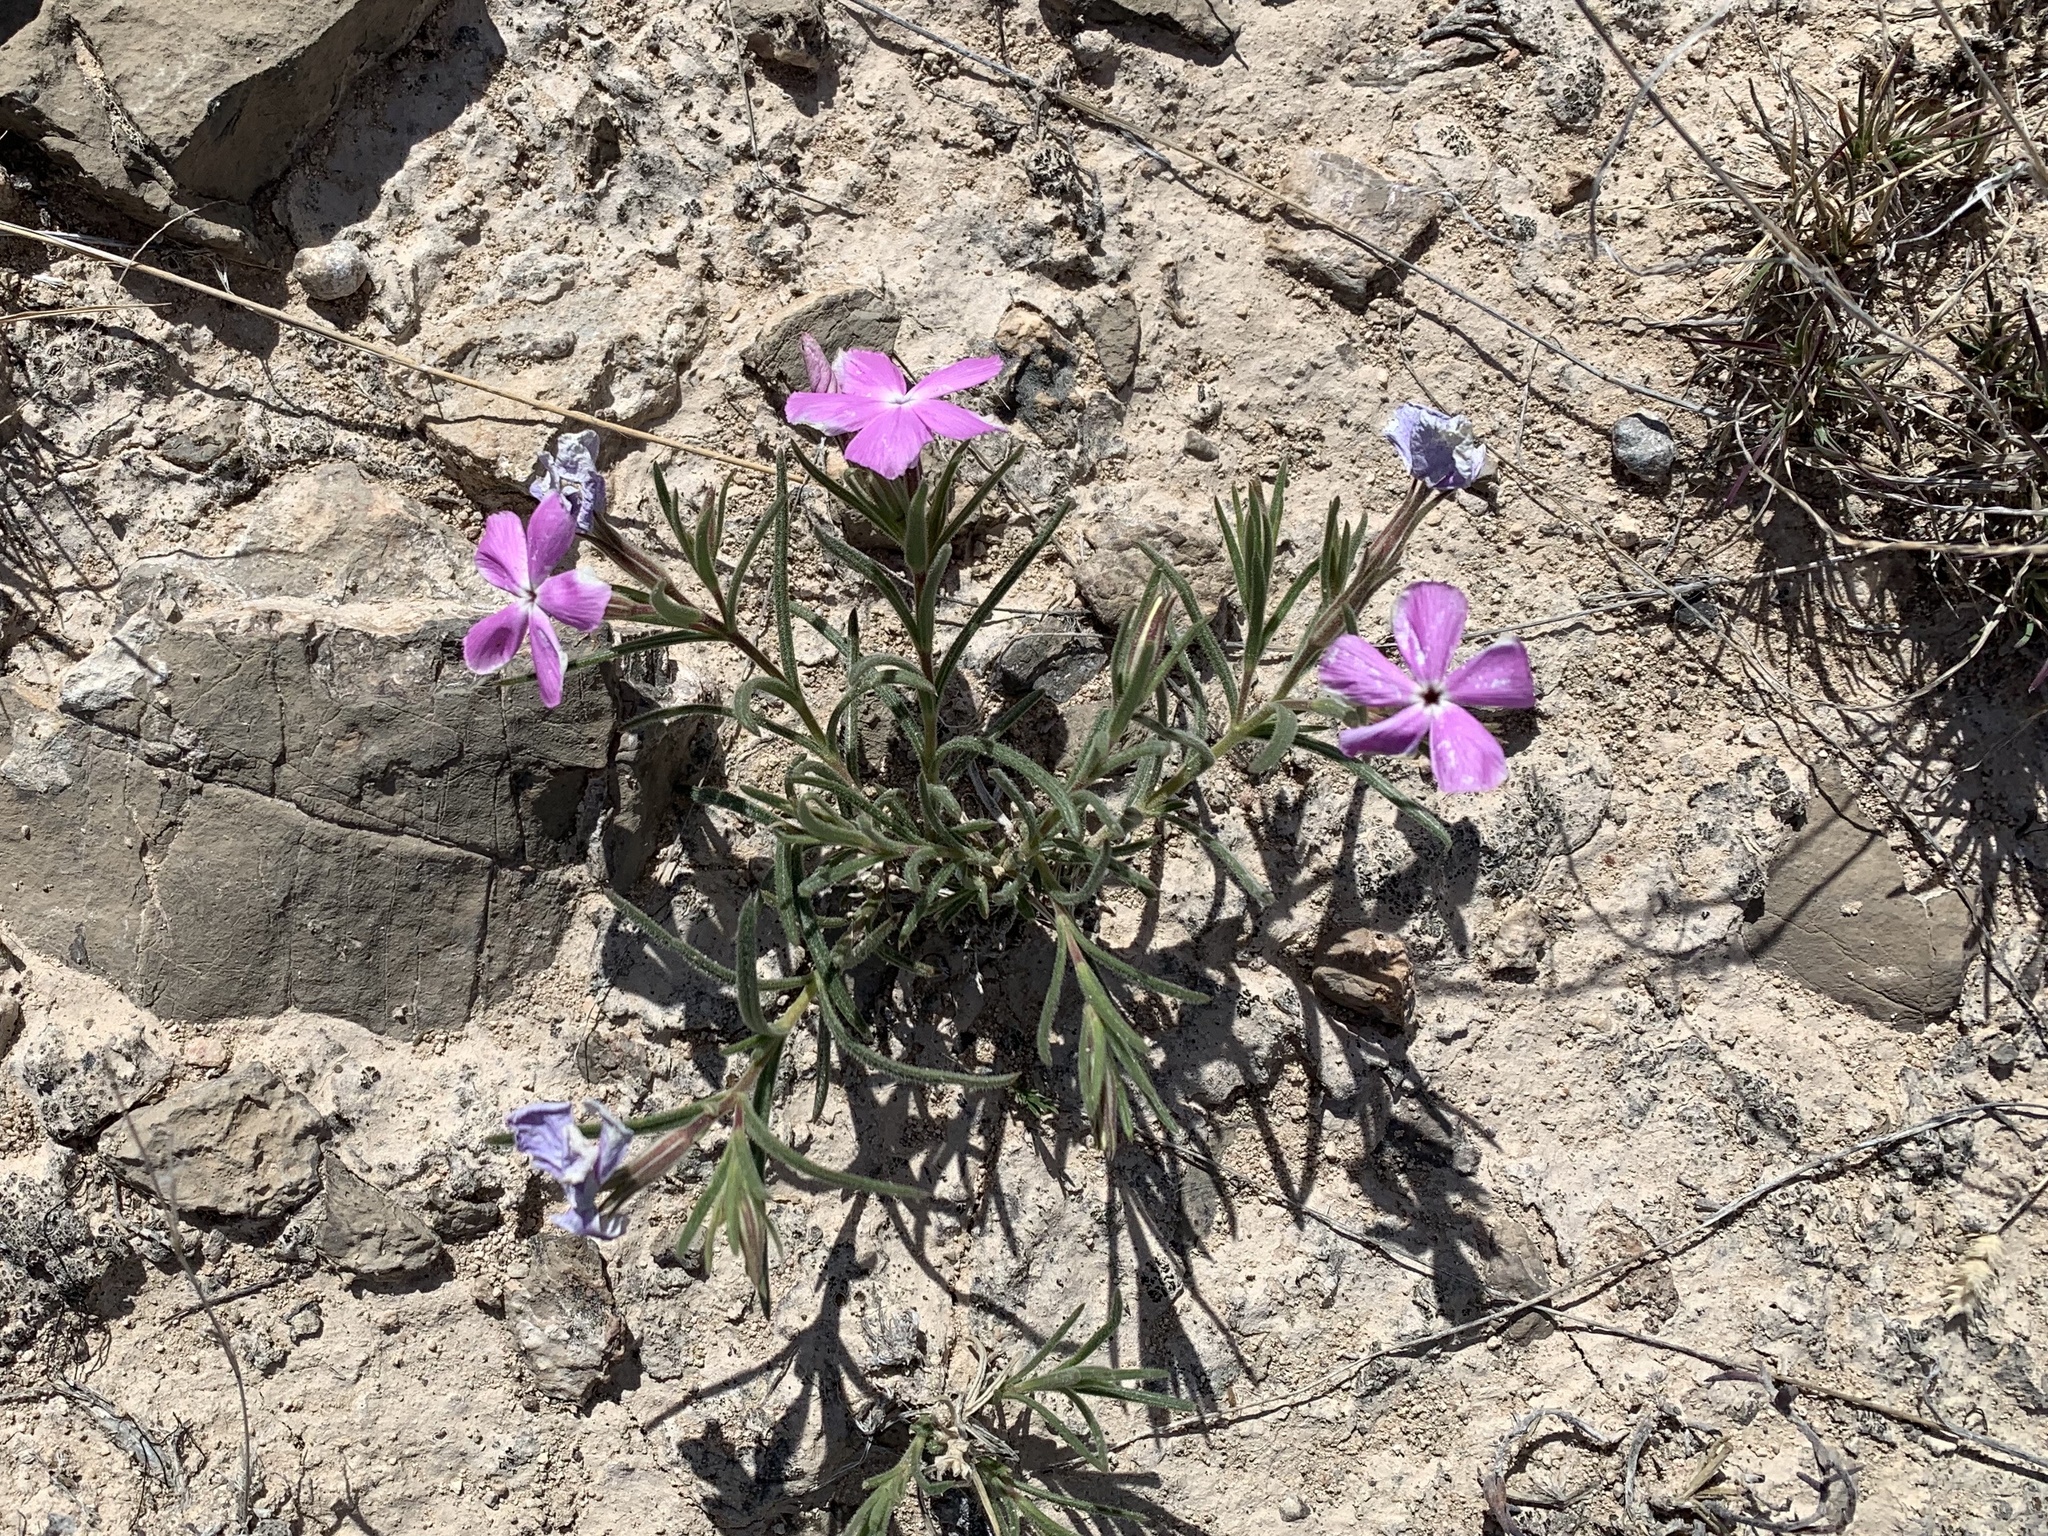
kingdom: Plantae
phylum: Tracheophyta
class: Magnoliopsida
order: Ericales
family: Polemoniaceae
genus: Phlox
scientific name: Phlox nana
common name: Santa fe phlox
